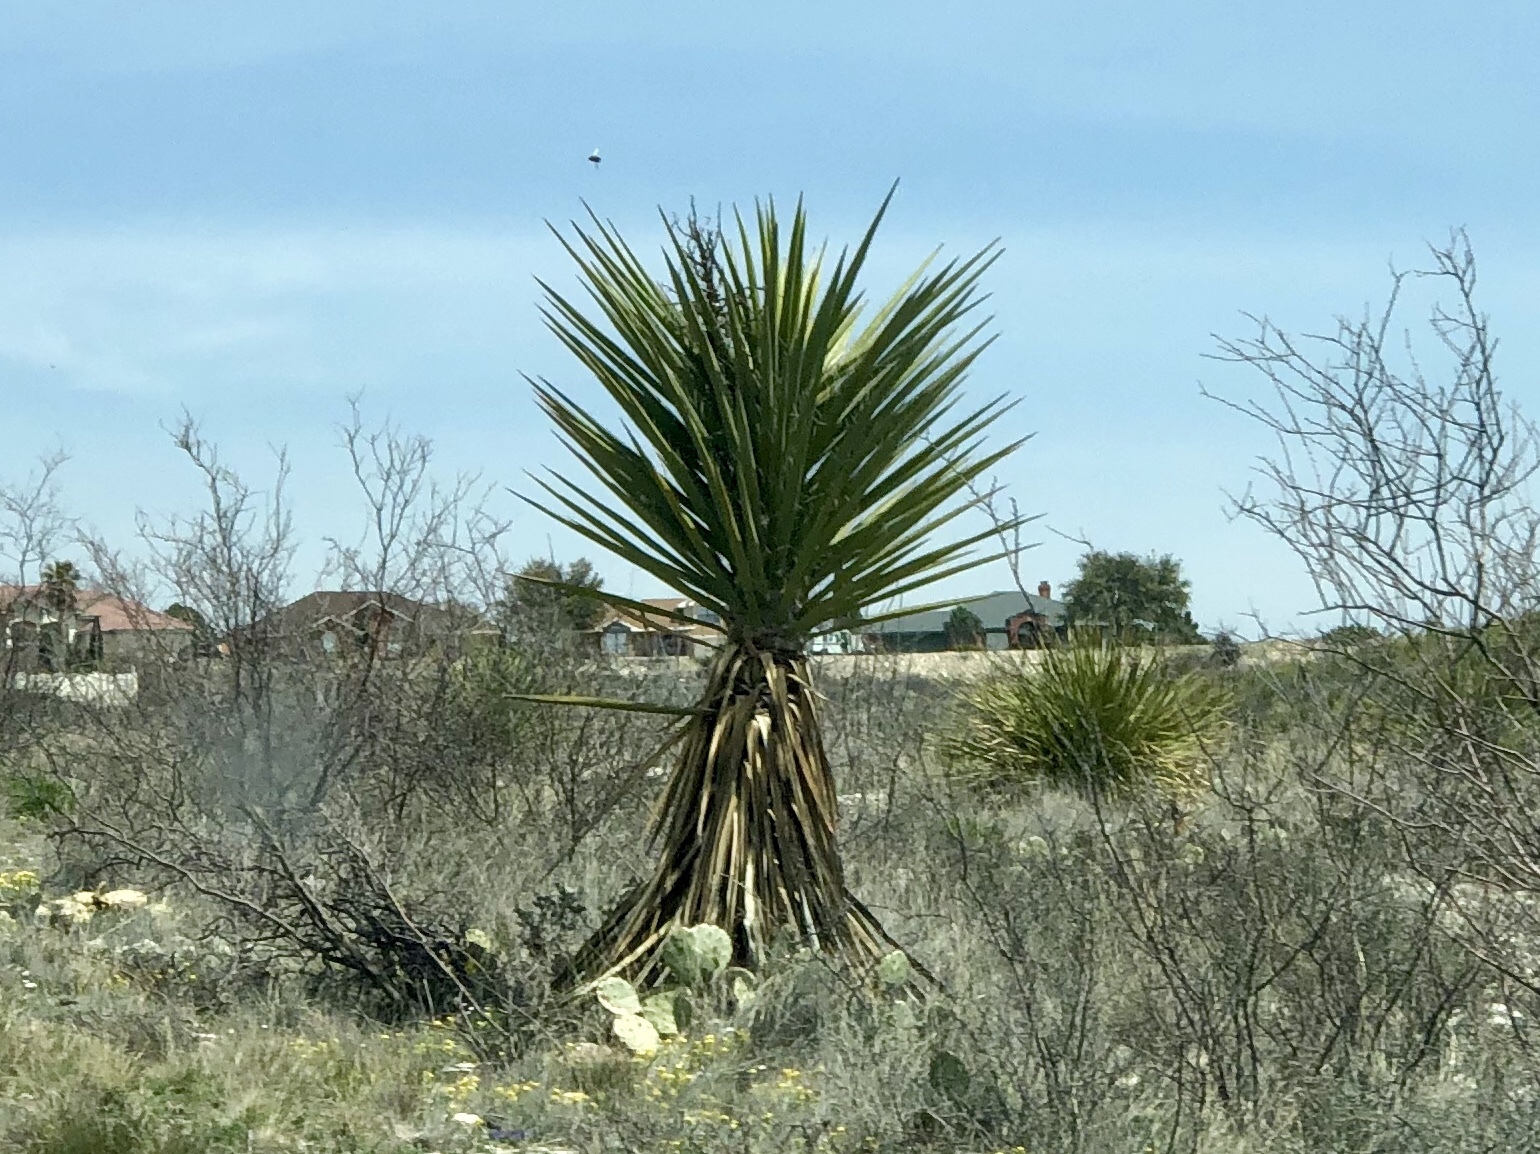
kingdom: Plantae
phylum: Tracheophyta
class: Liliopsida
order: Asparagales
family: Asparagaceae
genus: Yucca
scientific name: Yucca treculiana
